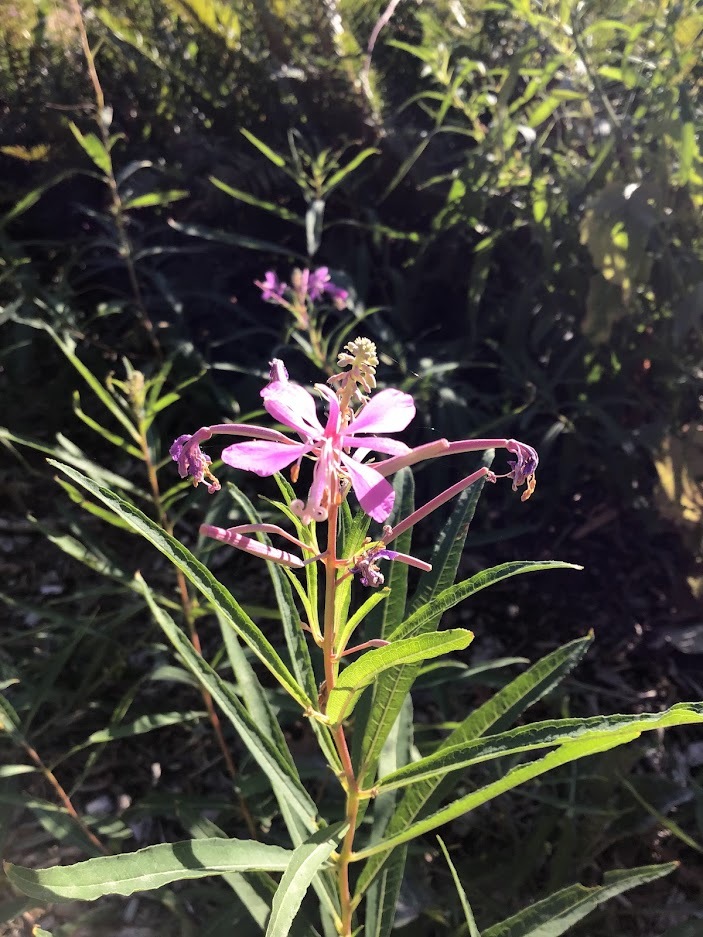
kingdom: Plantae
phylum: Tracheophyta
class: Magnoliopsida
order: Myrtales
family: Onagraceae
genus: Chamaenerion
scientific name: Chamaenerion angustifolium
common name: Fireweed
